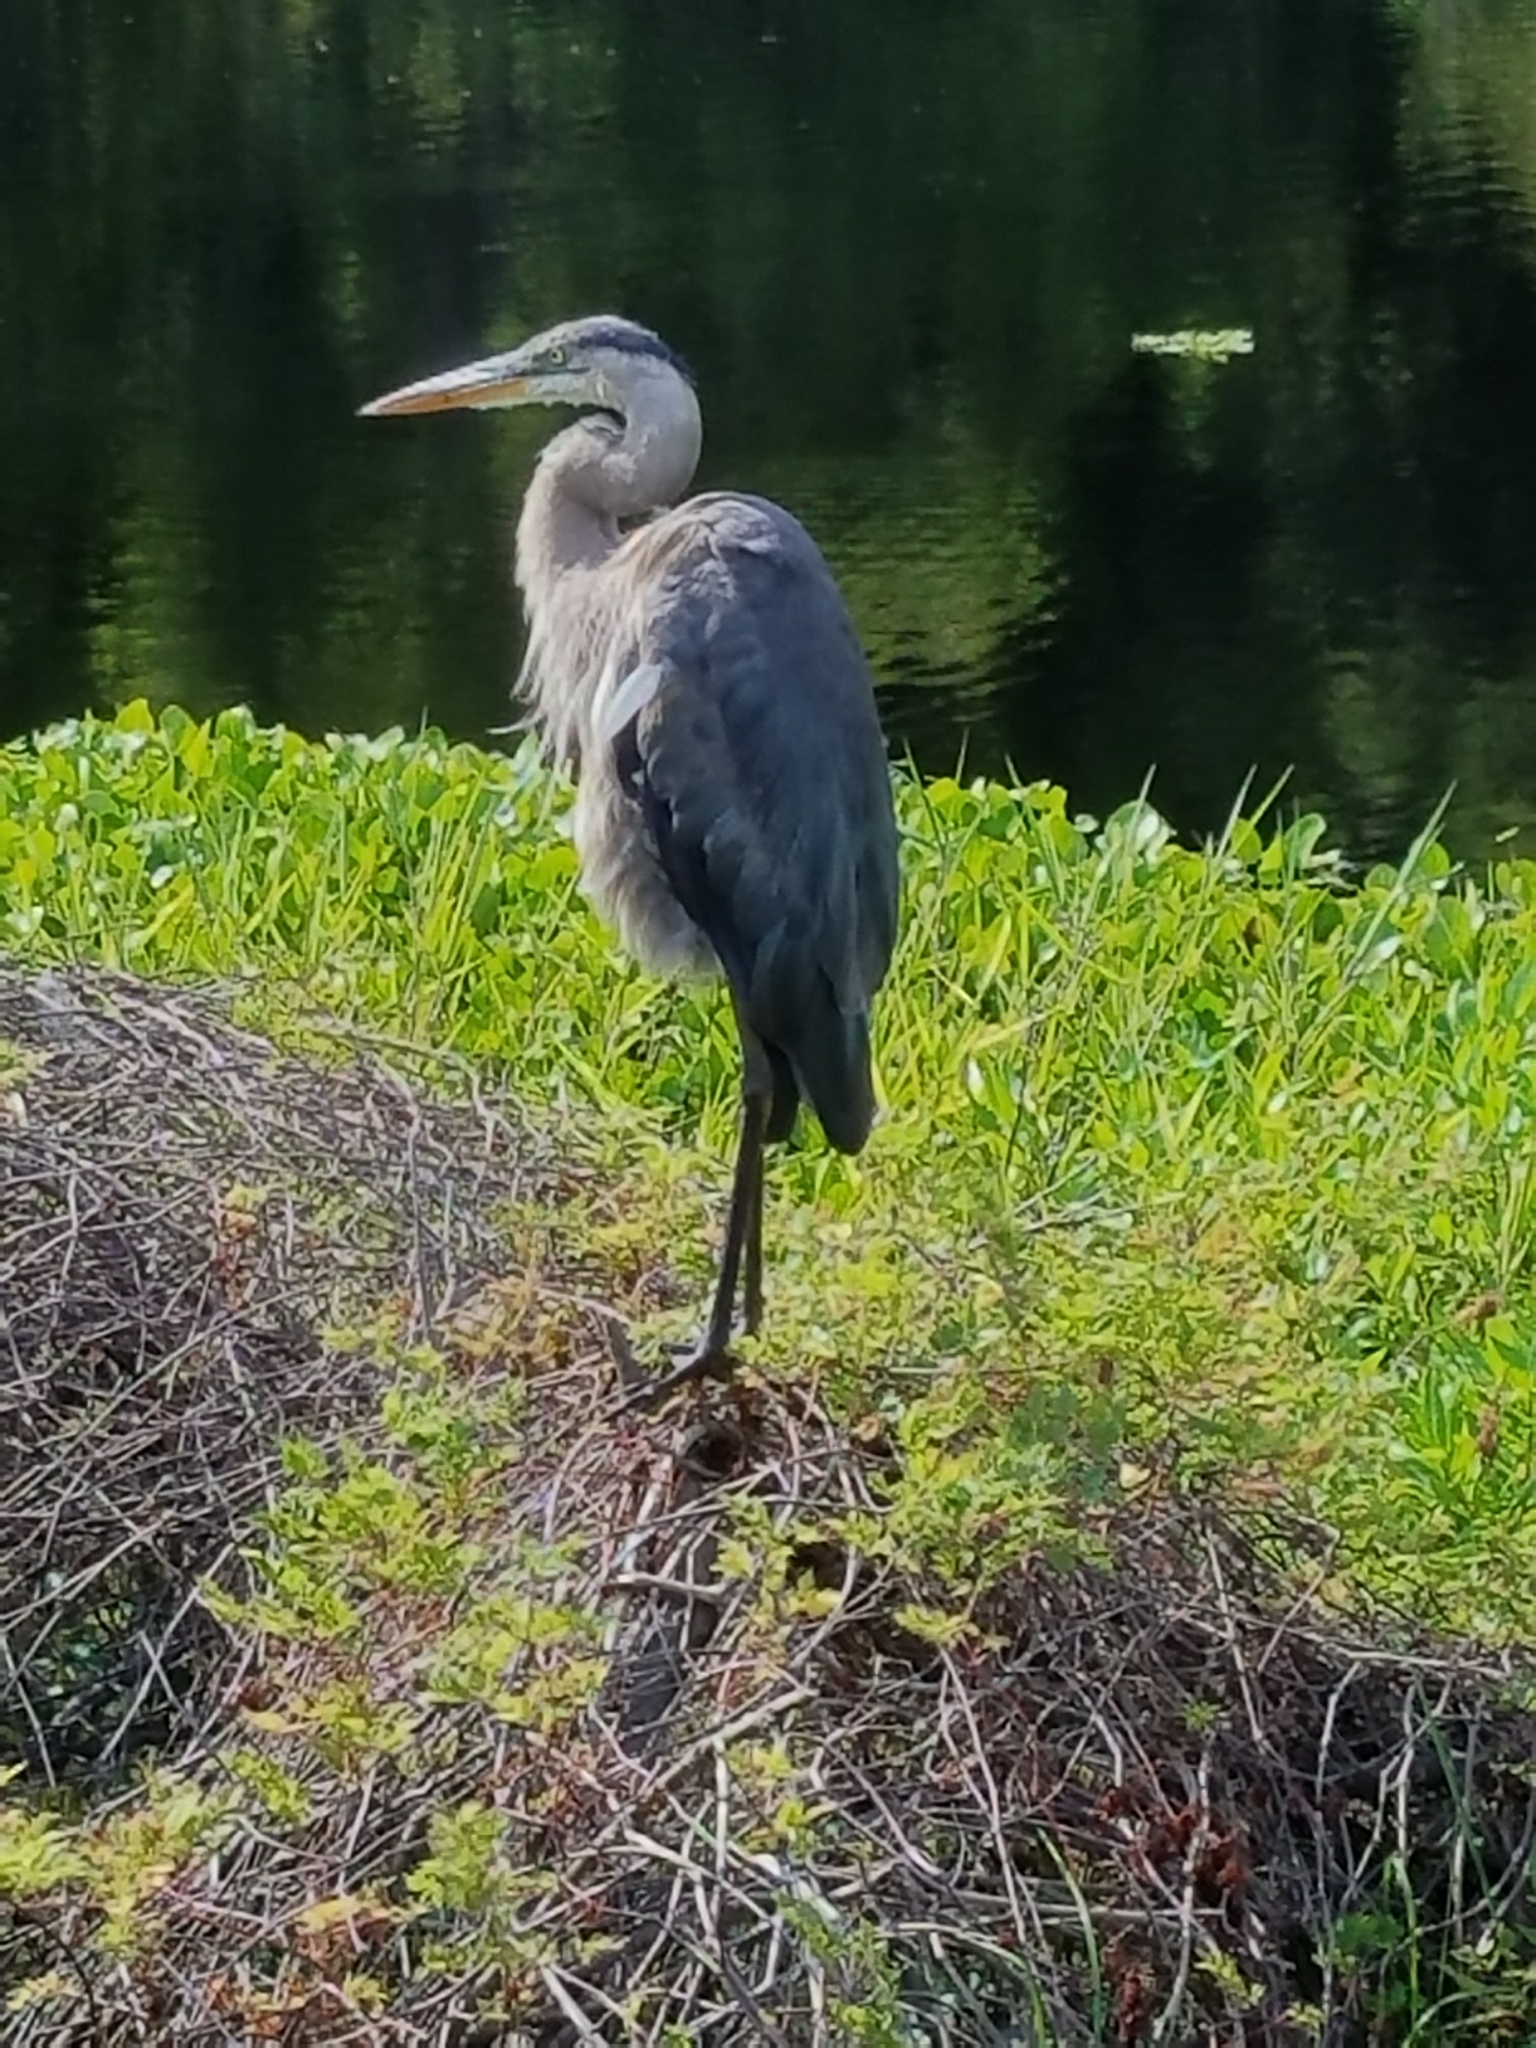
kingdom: Animalia
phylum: Chordata
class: Aves
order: Pelecaniformes
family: Ardeidae
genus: Ardea
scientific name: Ardea herodias
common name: Great blue heron
